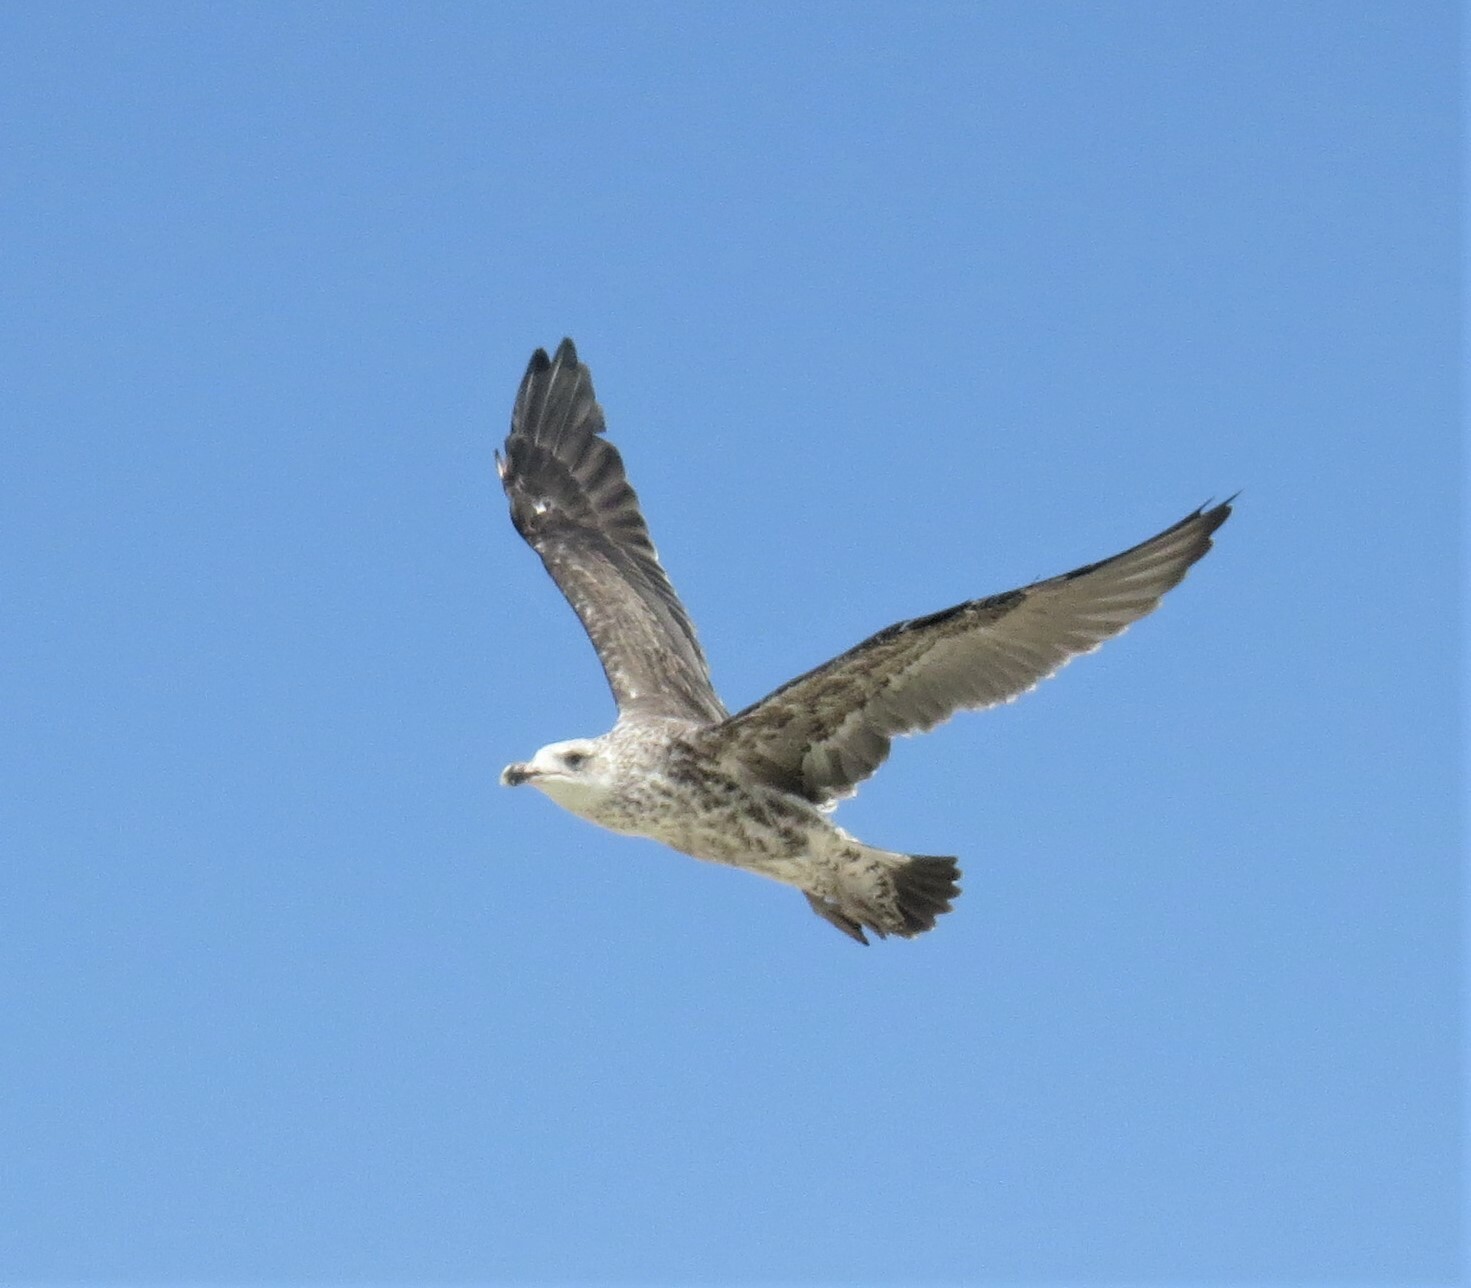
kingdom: Animalia
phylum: Chordata
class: Aves
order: Charadriiformes
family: Laridae
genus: Larus
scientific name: Larus dominicanus
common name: Kelp gull
